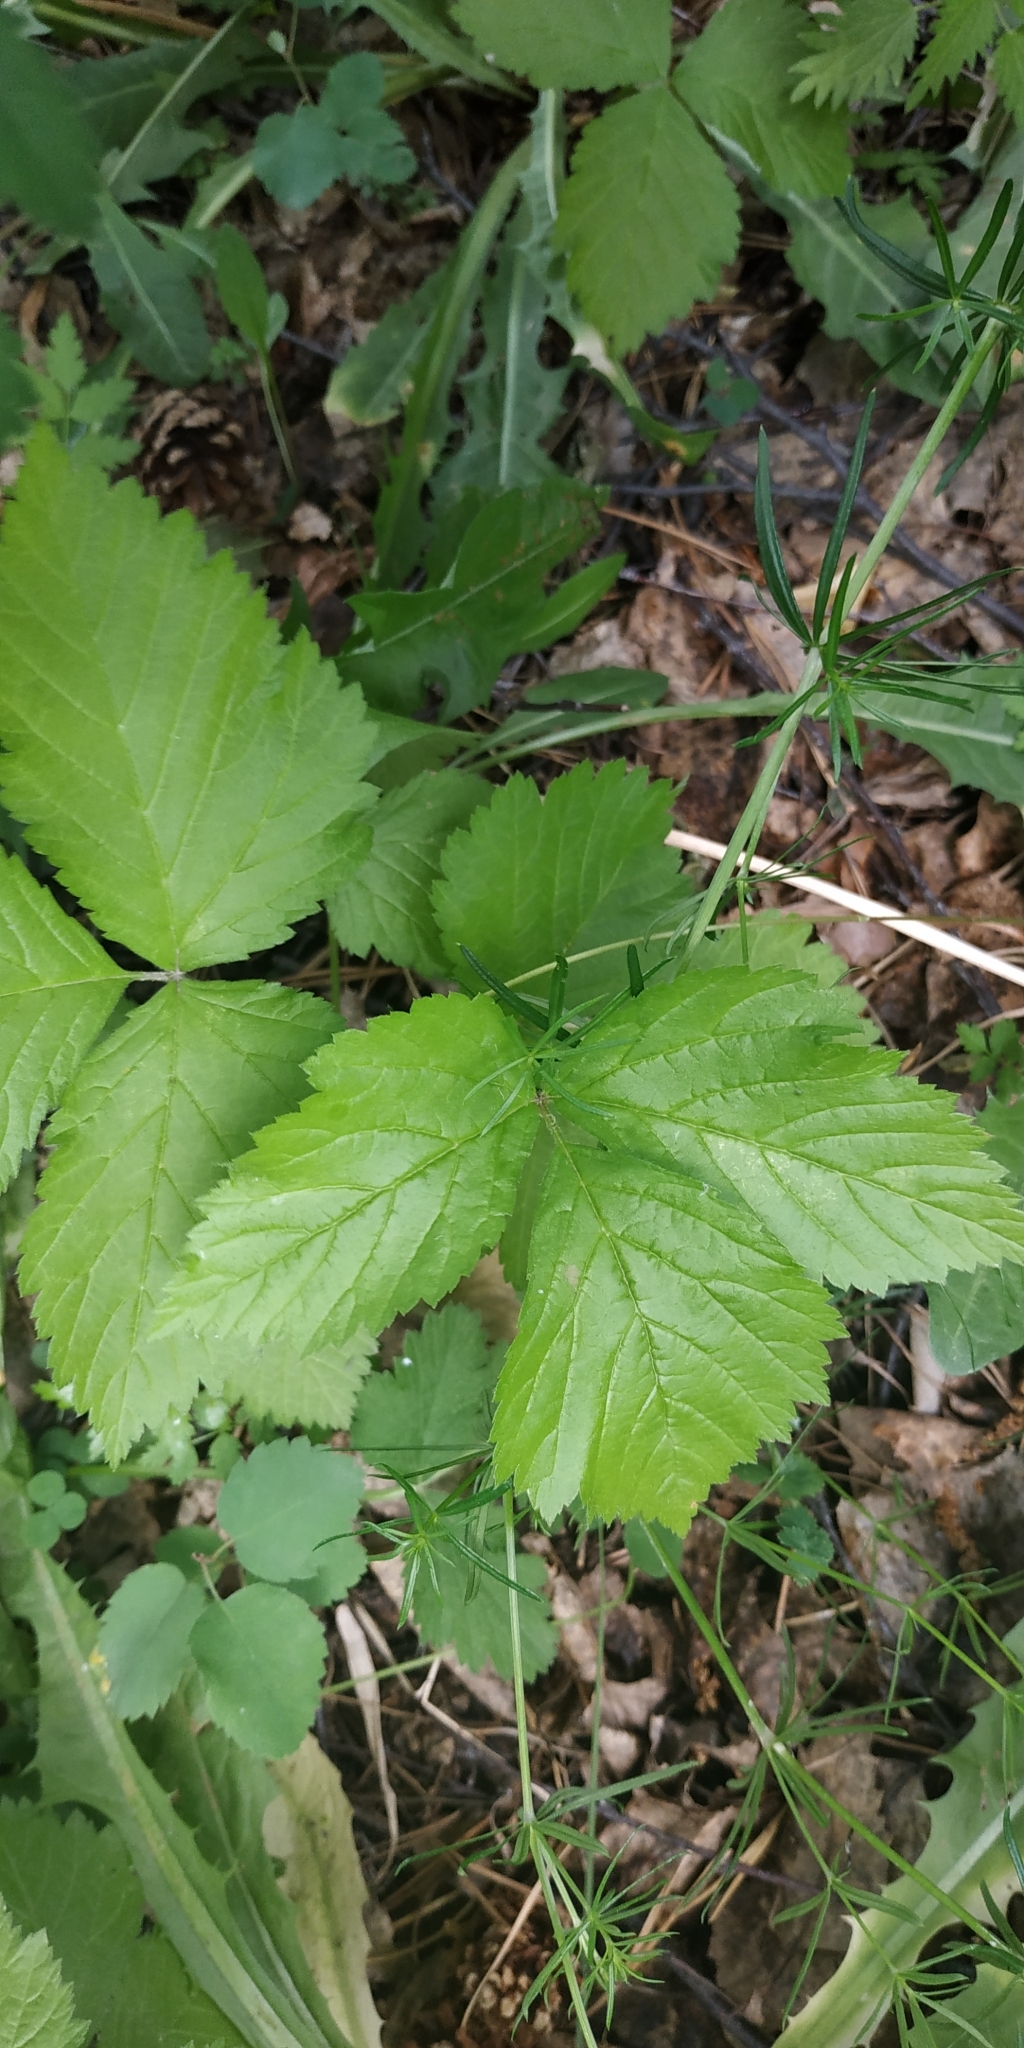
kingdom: Plantae
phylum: Tracheophyta
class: Magnoliopsida
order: Rosales
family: Rosaceae
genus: Rubus
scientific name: Rubus saxatilis
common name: Stone bramble
